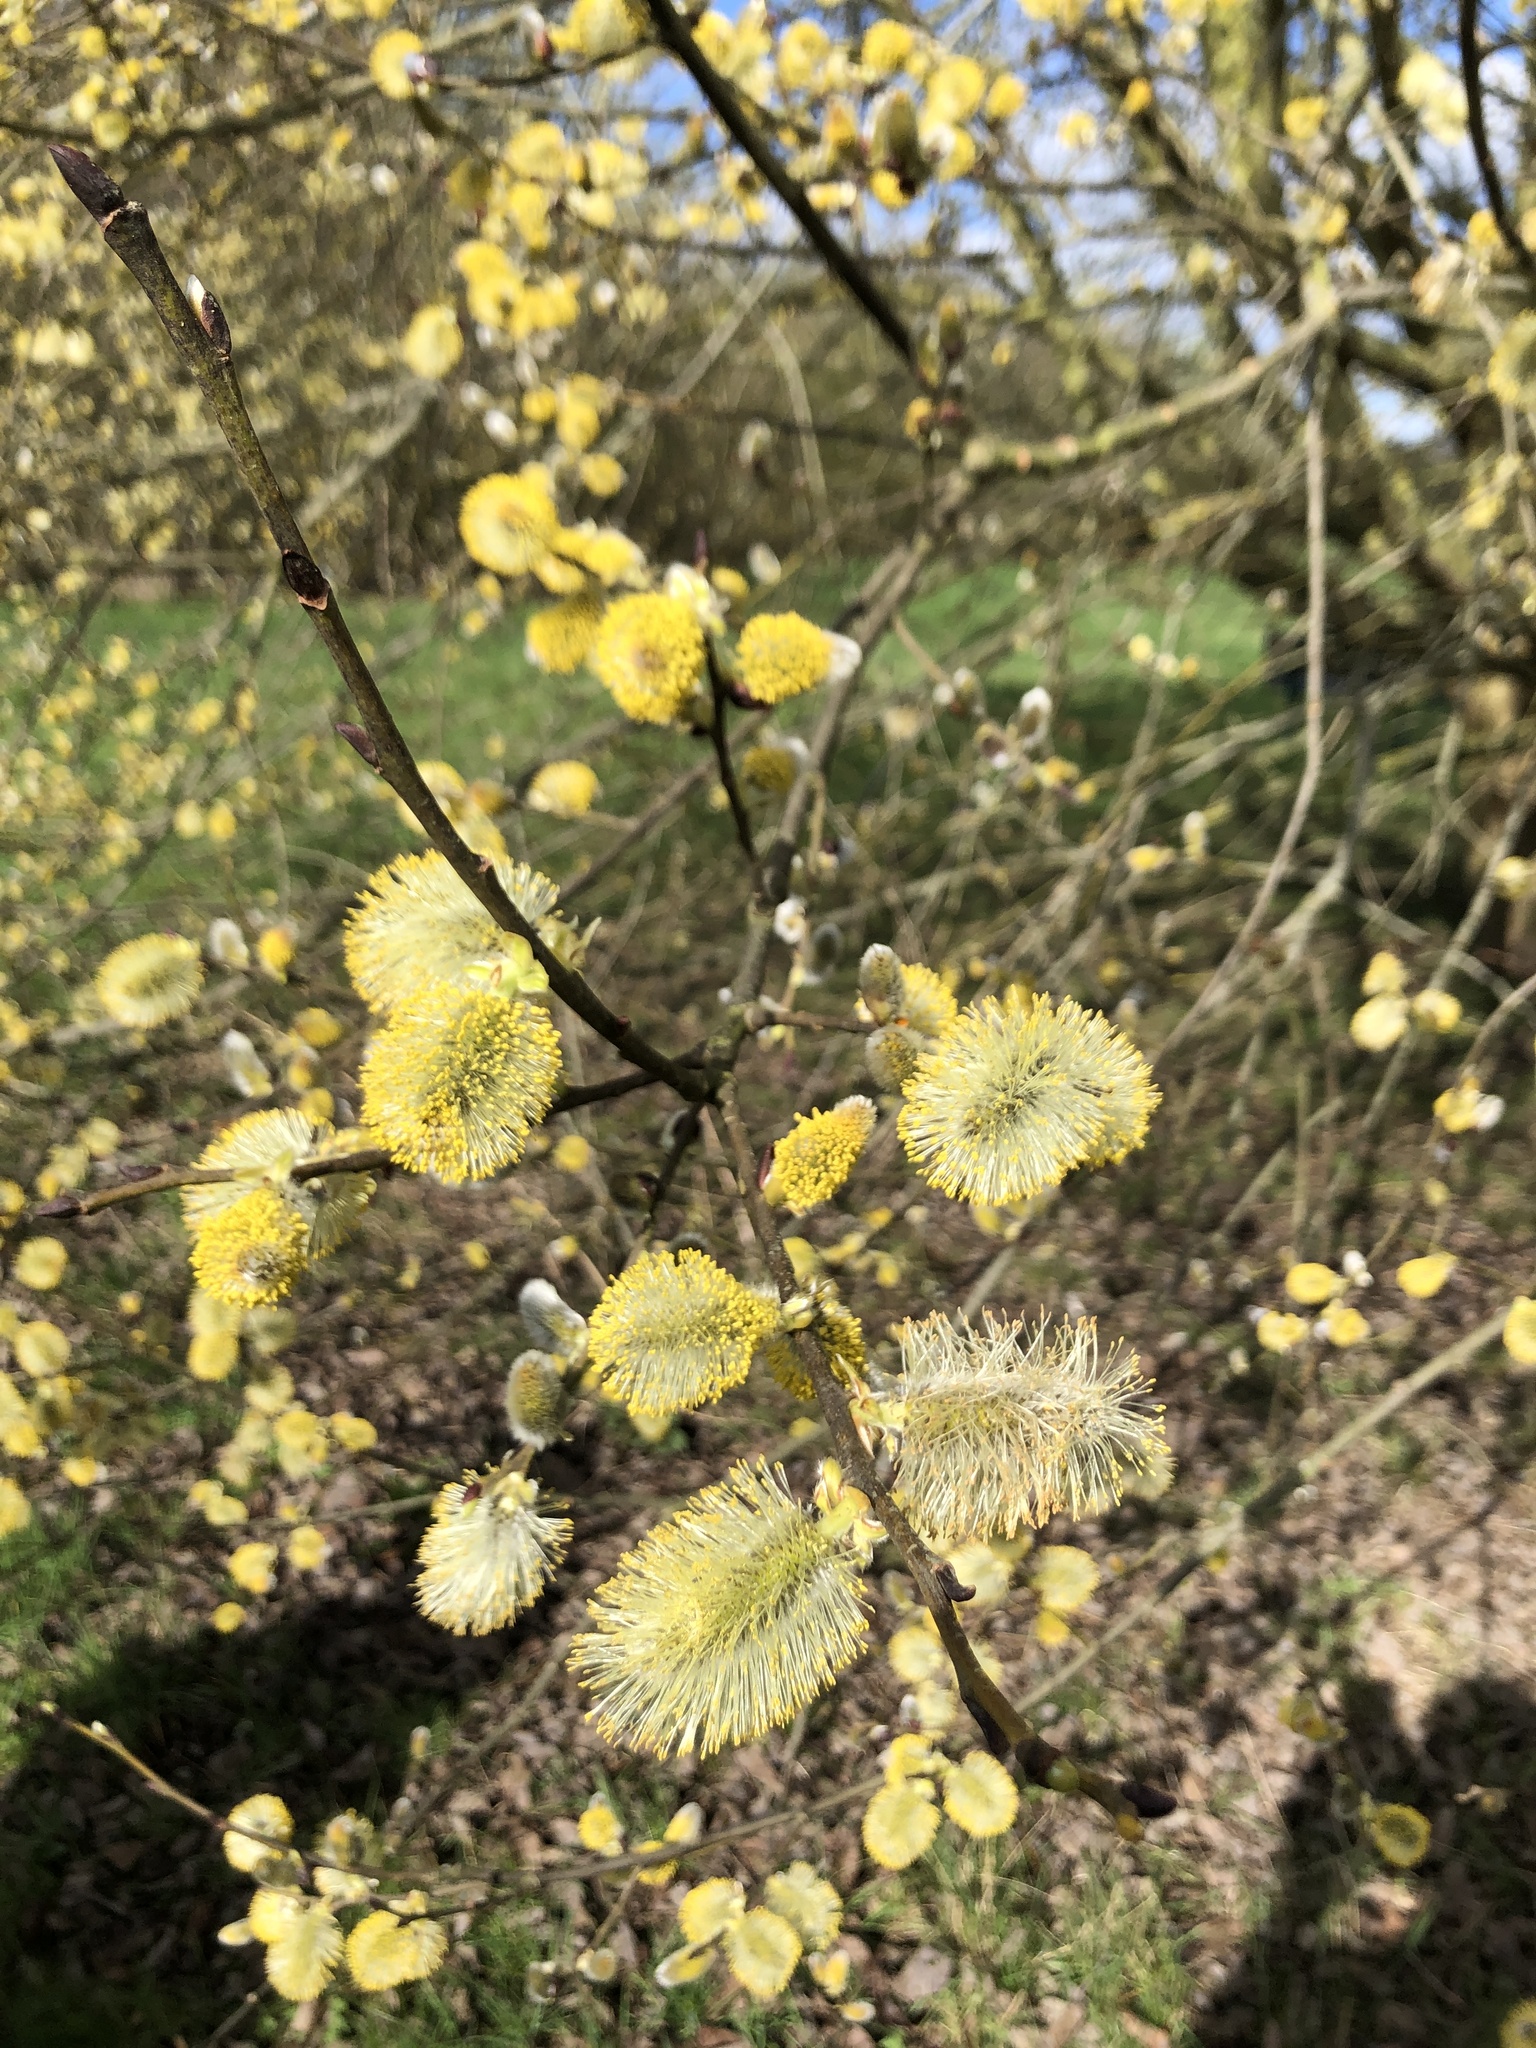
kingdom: Plantae
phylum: Tracheophyta
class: Magnoliopsida
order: Malpighiales
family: Salicaceae
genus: Salix
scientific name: Salix caprea
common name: Goat willow
